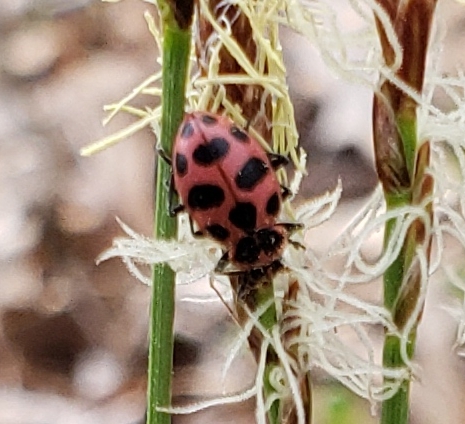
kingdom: Animalia
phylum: Arthropoda
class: Insecta
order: Coleoptera
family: Coccinellidae
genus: Coleomegilla
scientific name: Coleomegilla maculata
